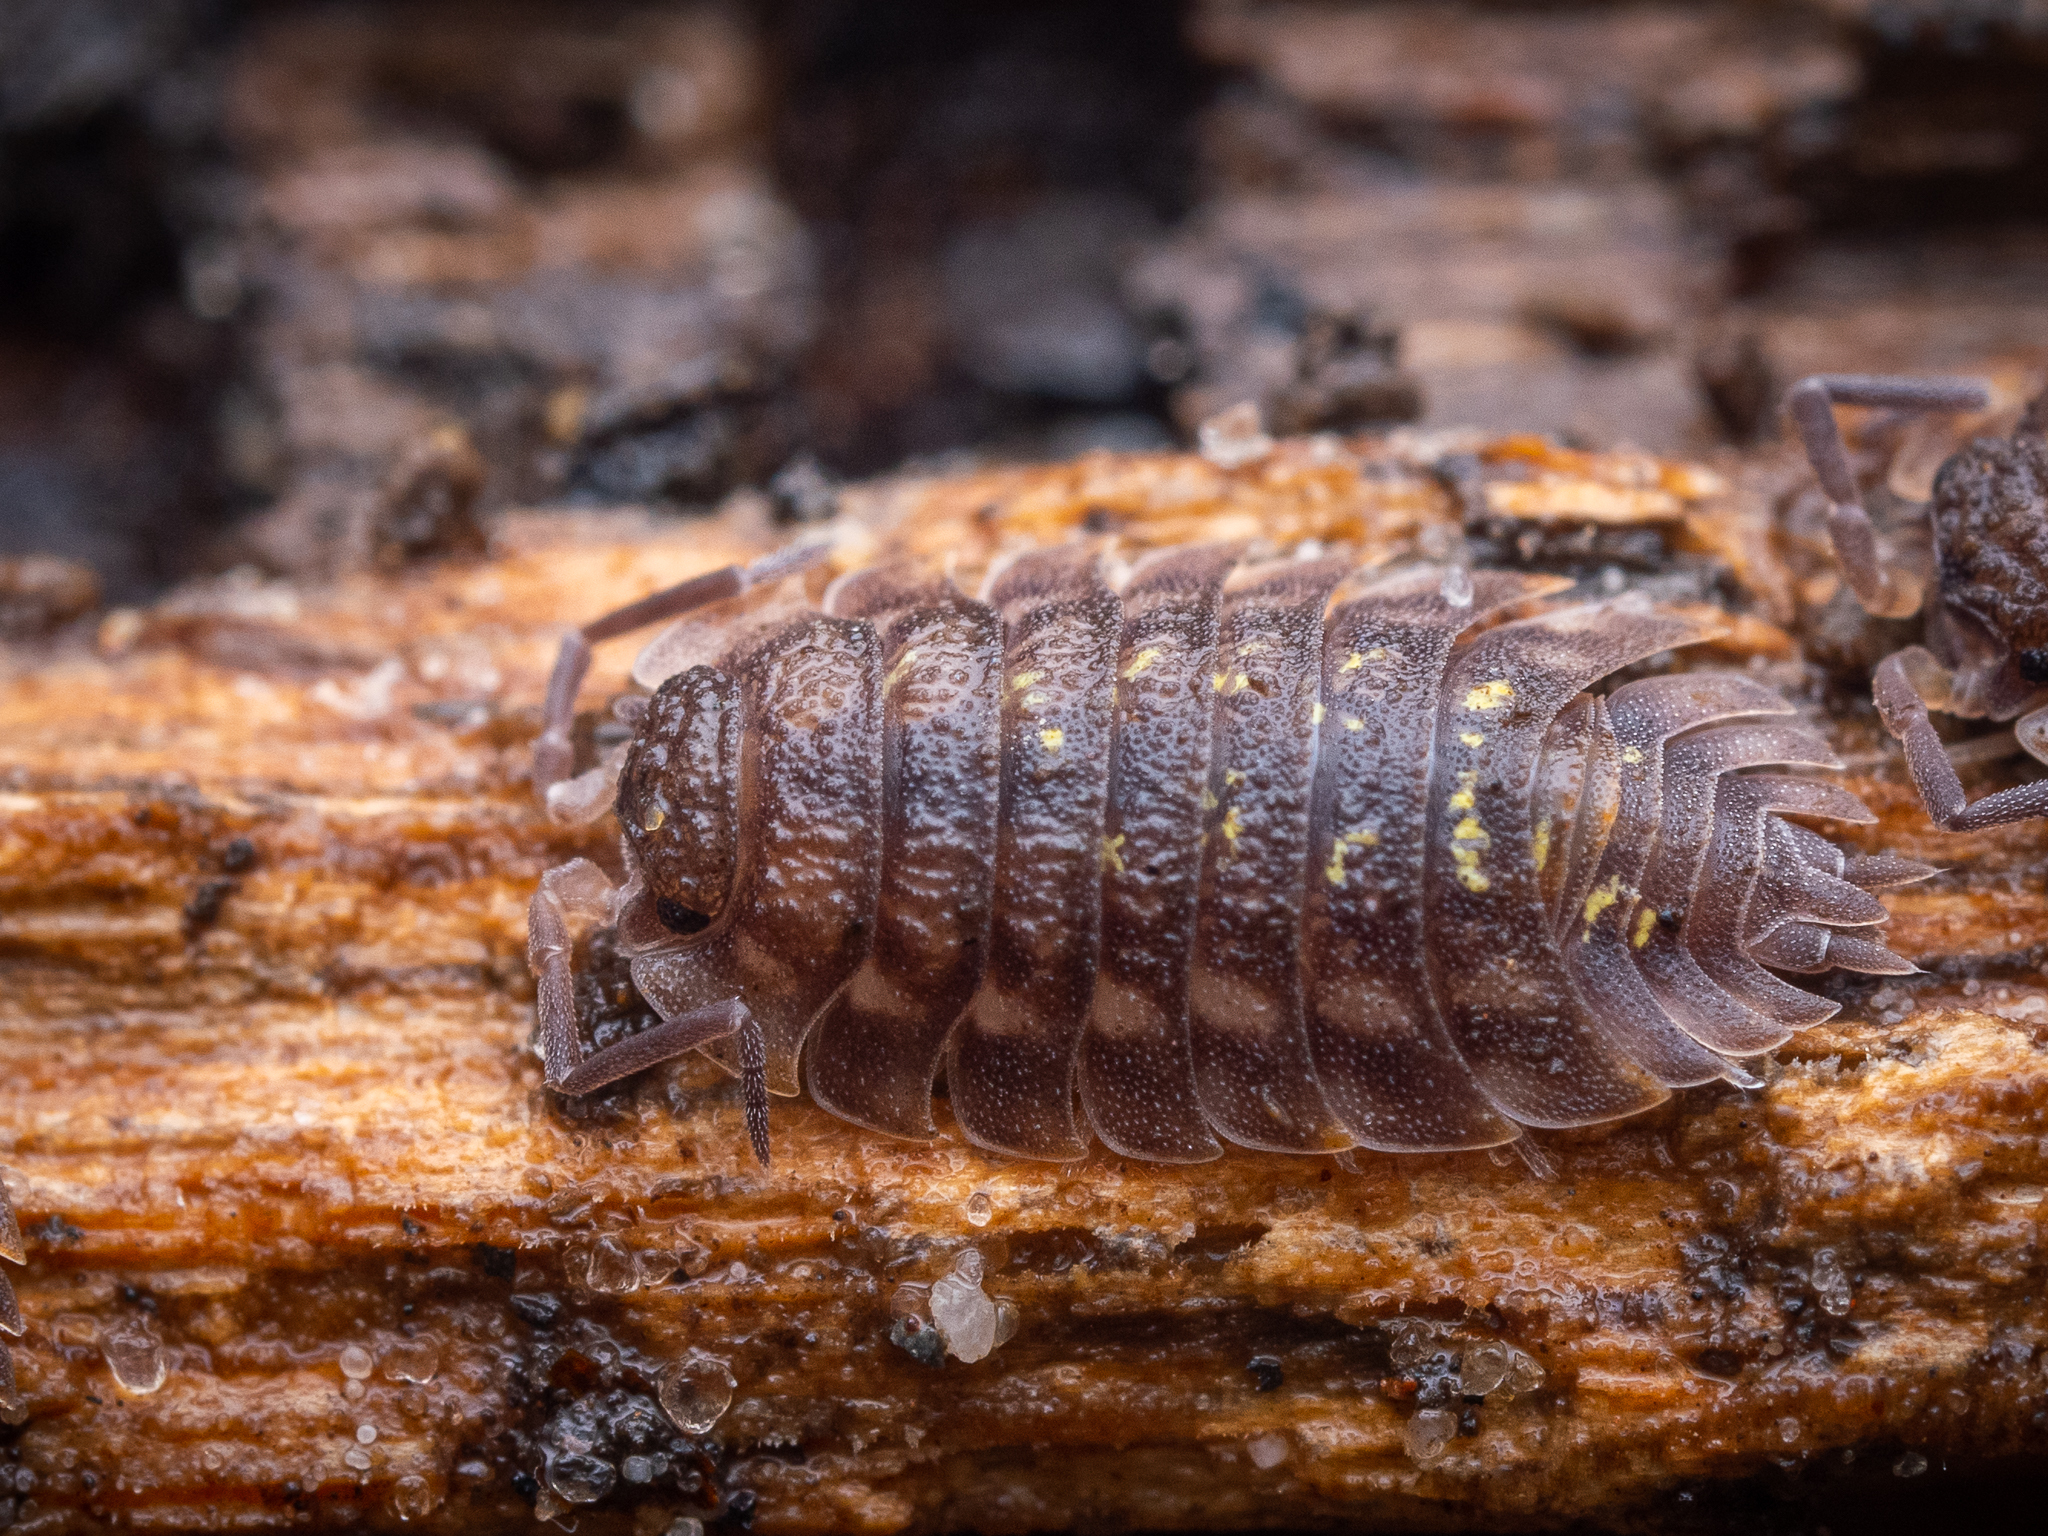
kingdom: Animalia
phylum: Arthropoda
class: Malacostraca
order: Isopoda
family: Oniscidae
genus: Oniscus
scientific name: Oniscus asellus
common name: Common shiny woodlouse
